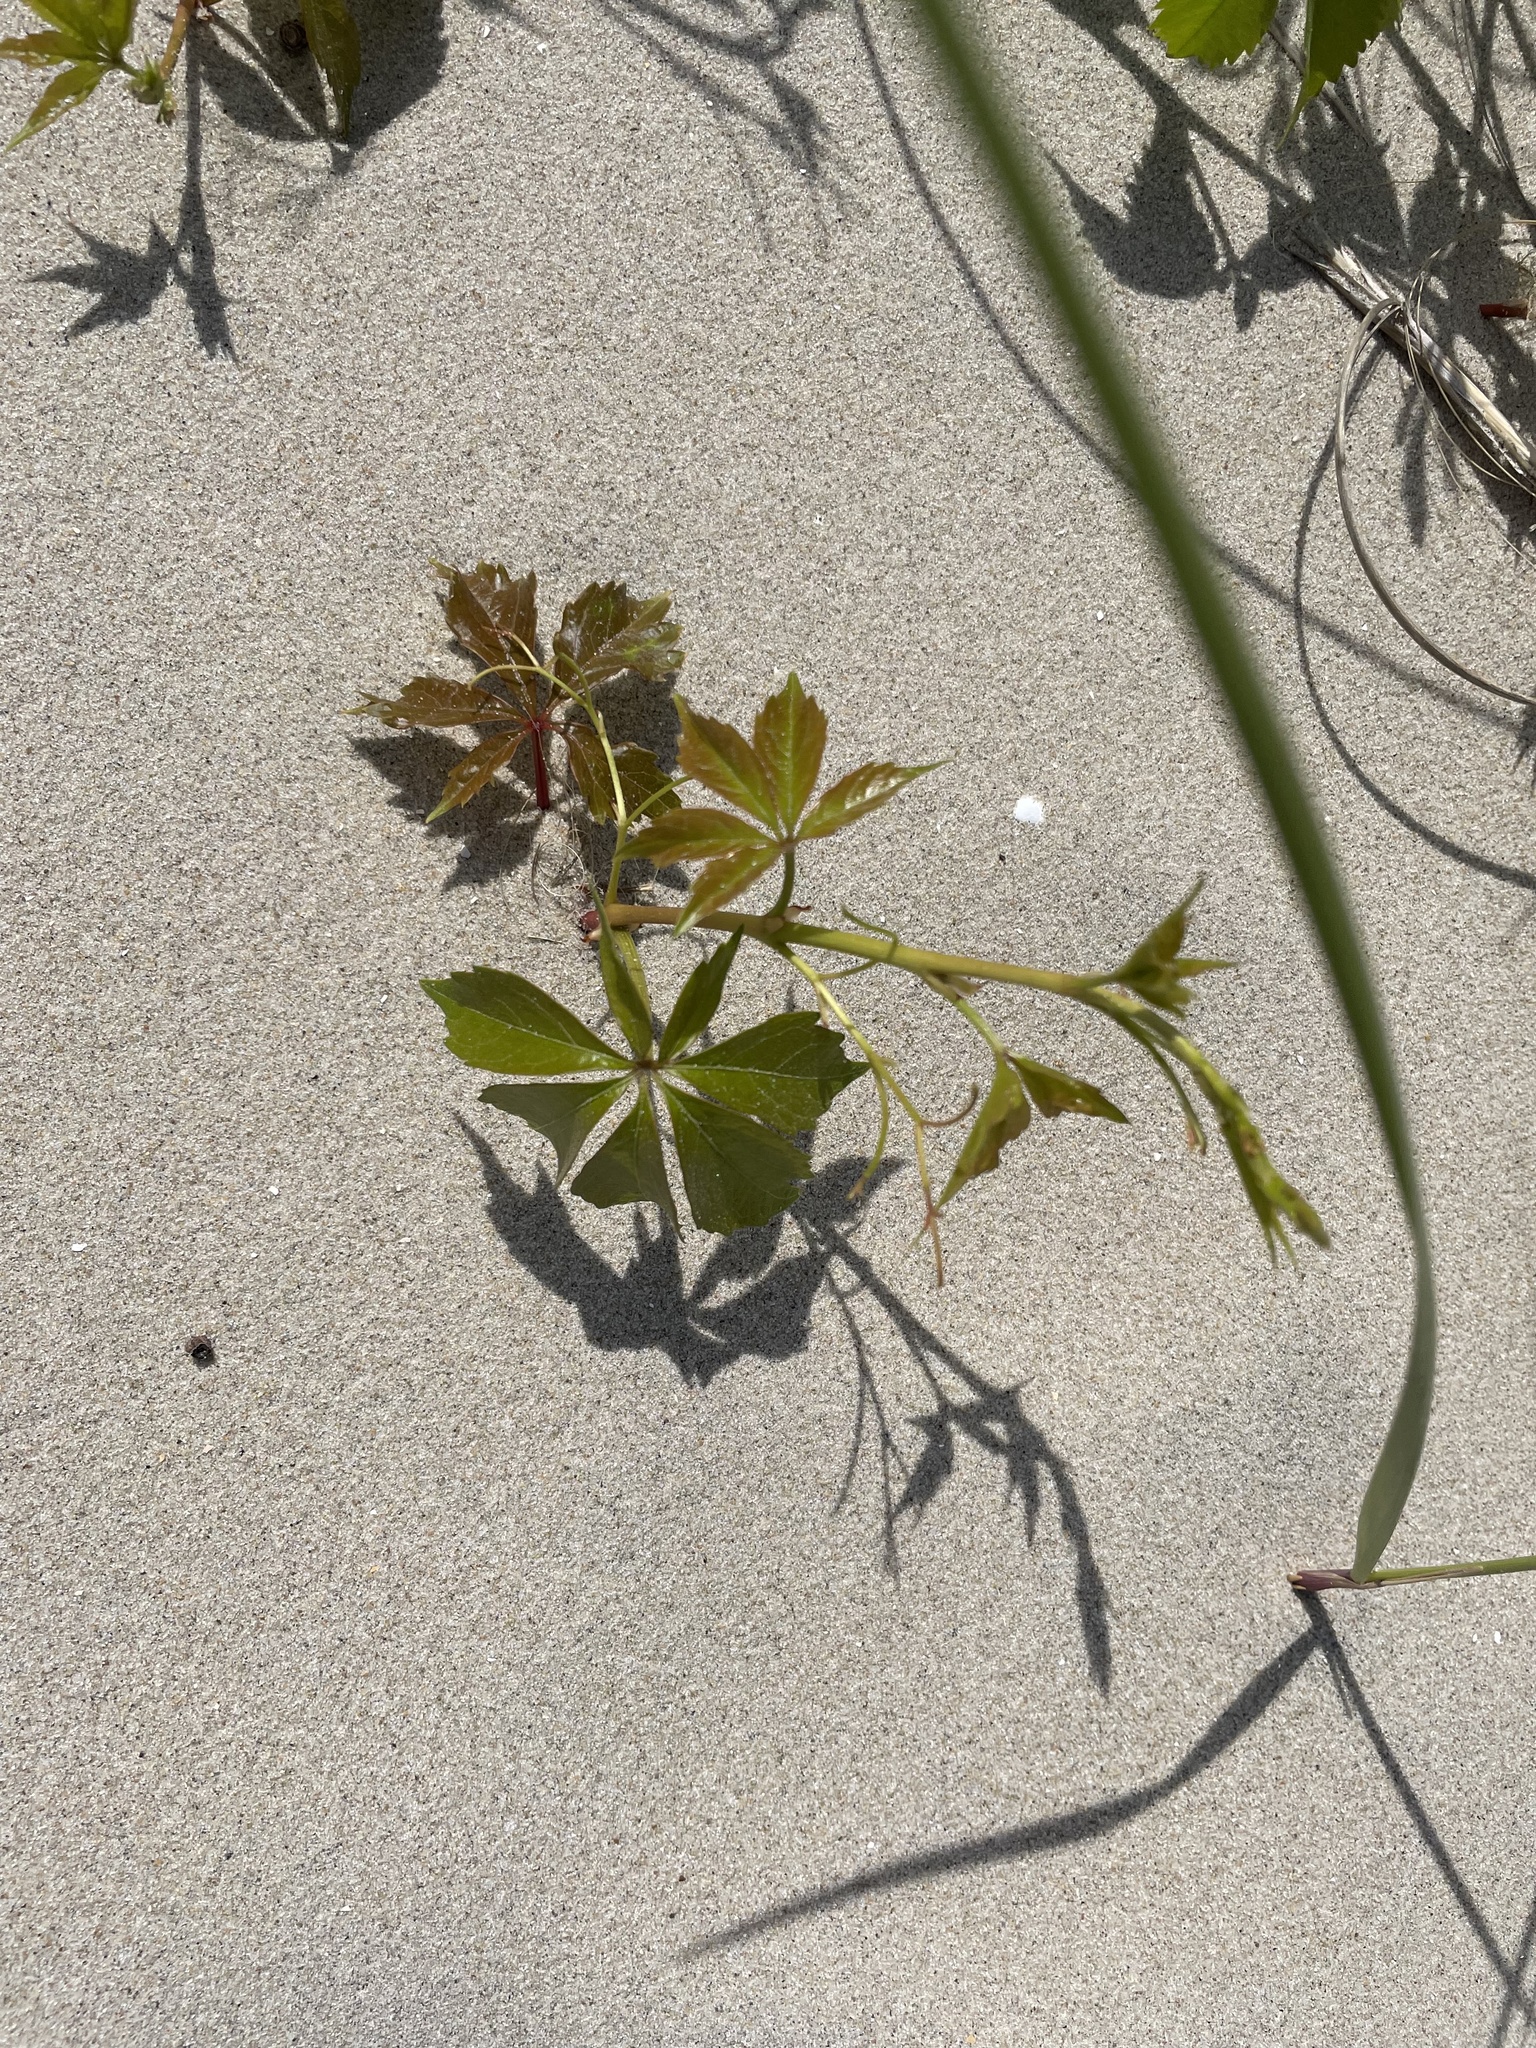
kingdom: Plantae
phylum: Tracheophyta
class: Magnoliopsida
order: Vitales
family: Vitaceae
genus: Parthenocissus
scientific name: Parthenocissus quinquefolia
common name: Virginia-creeper
